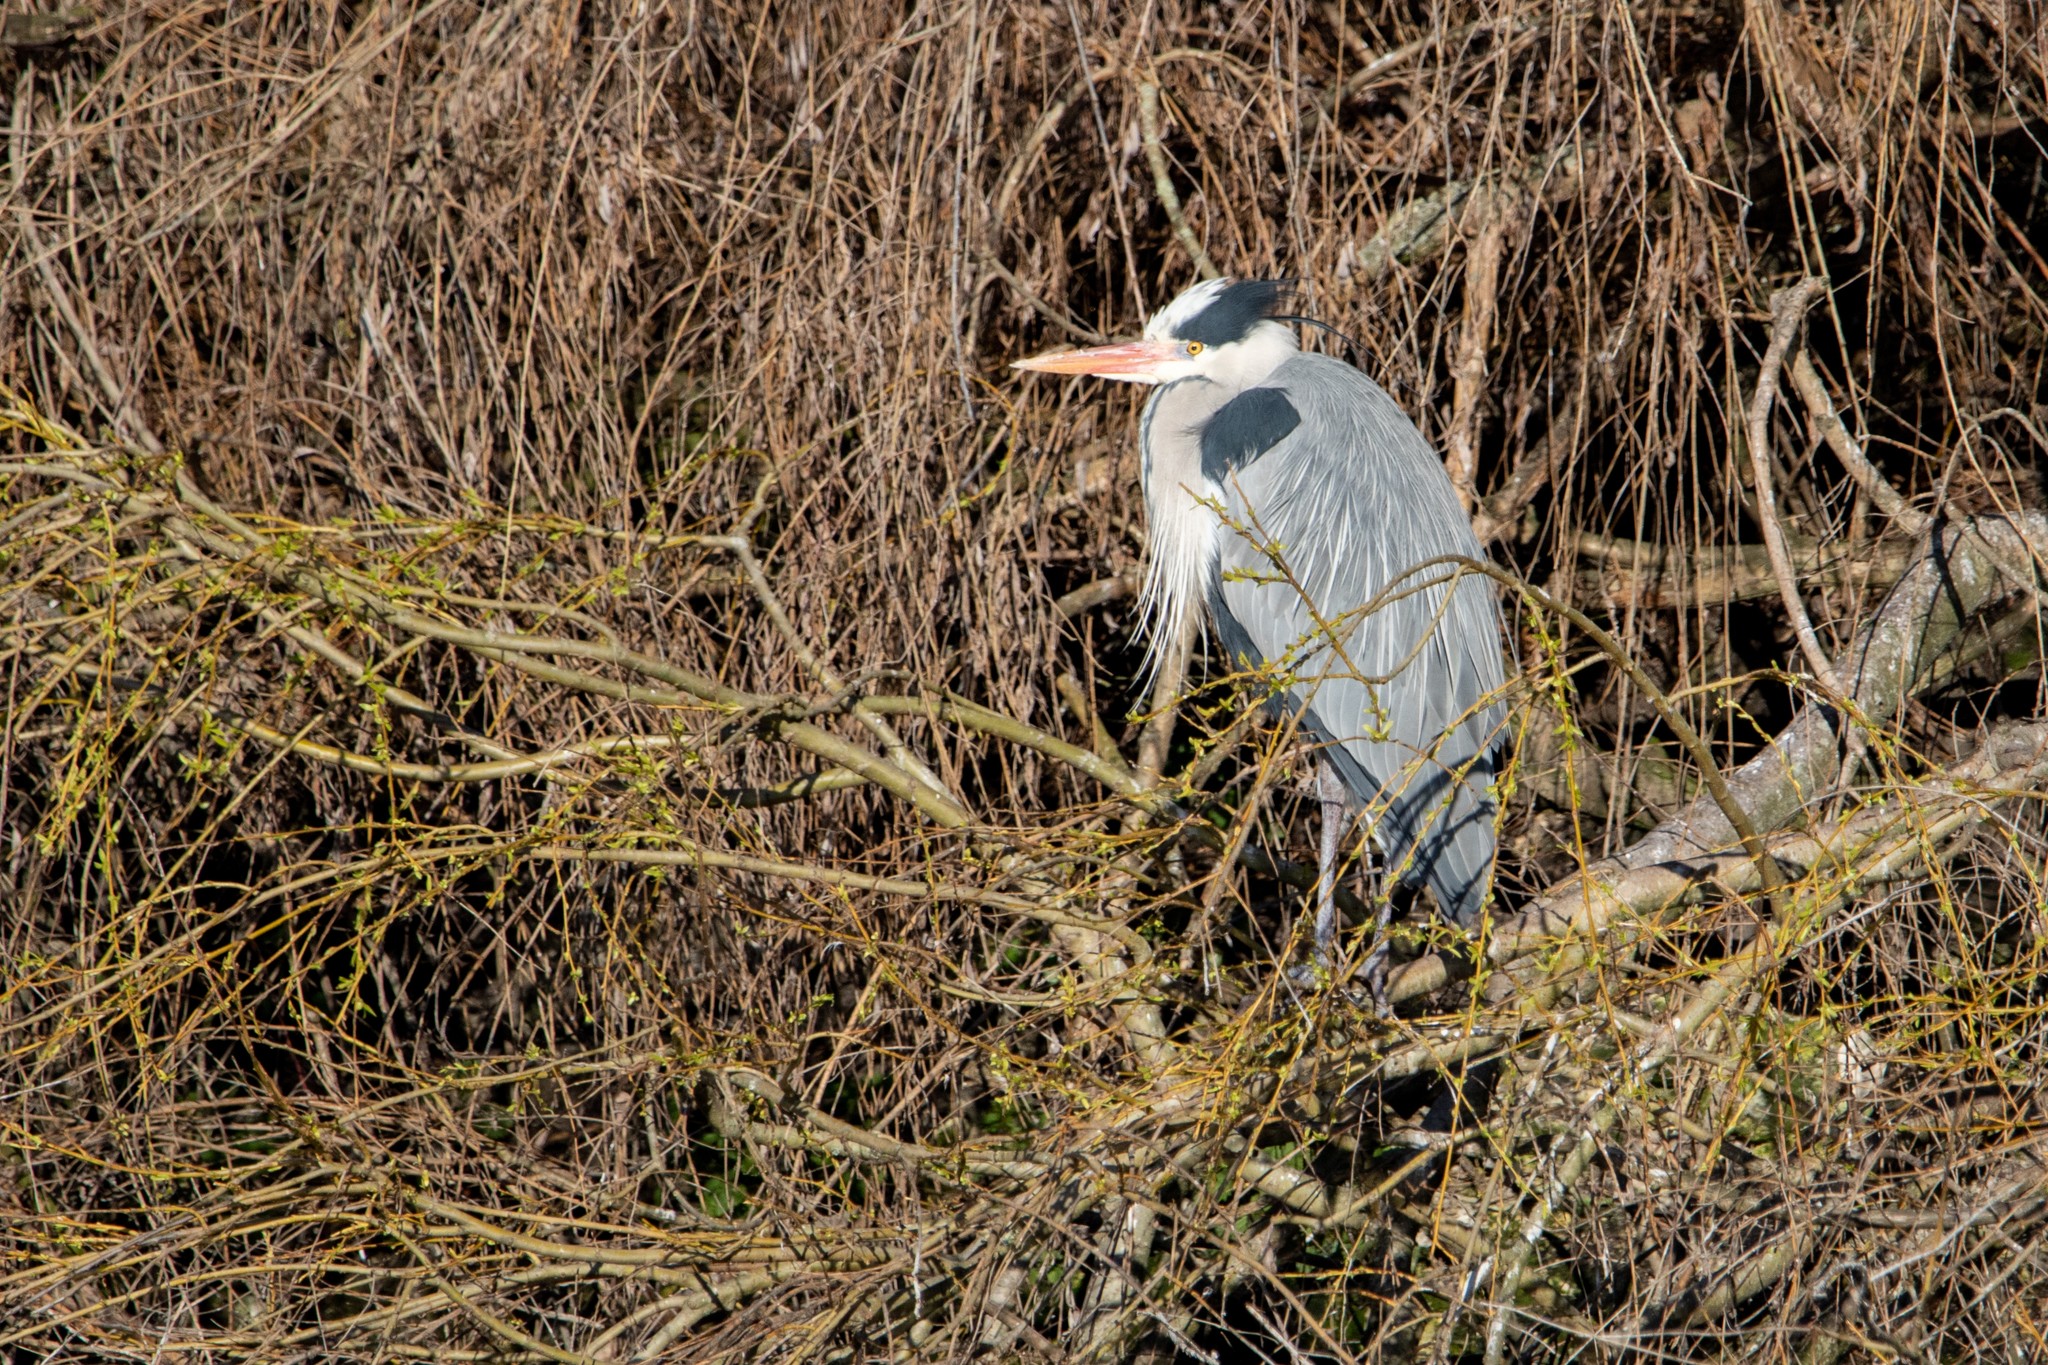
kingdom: Animalia
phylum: Chordata
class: Aves
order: Pelecaniformes
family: Ardeidae
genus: Ardea
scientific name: Ardea cinerea
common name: Grey heron
